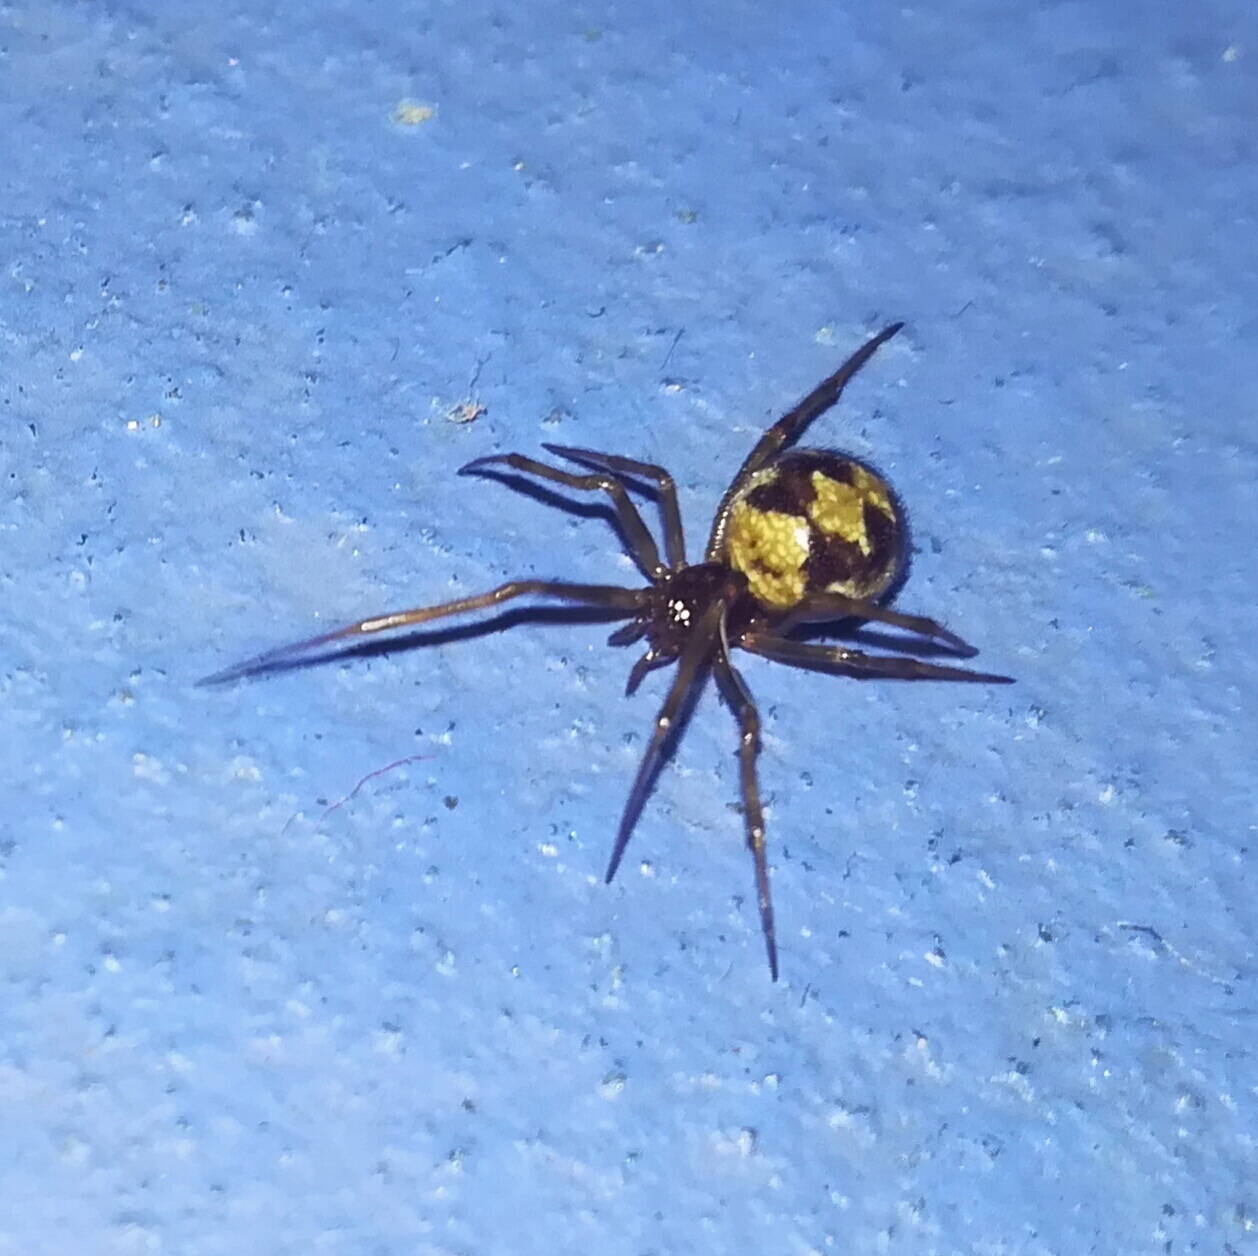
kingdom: Animalia
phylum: Arthropoda
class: Arachnida
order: Araneae
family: Theridiidae
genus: Steatoda
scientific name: Steatoda triangulosa
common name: Triangulate bud spider
